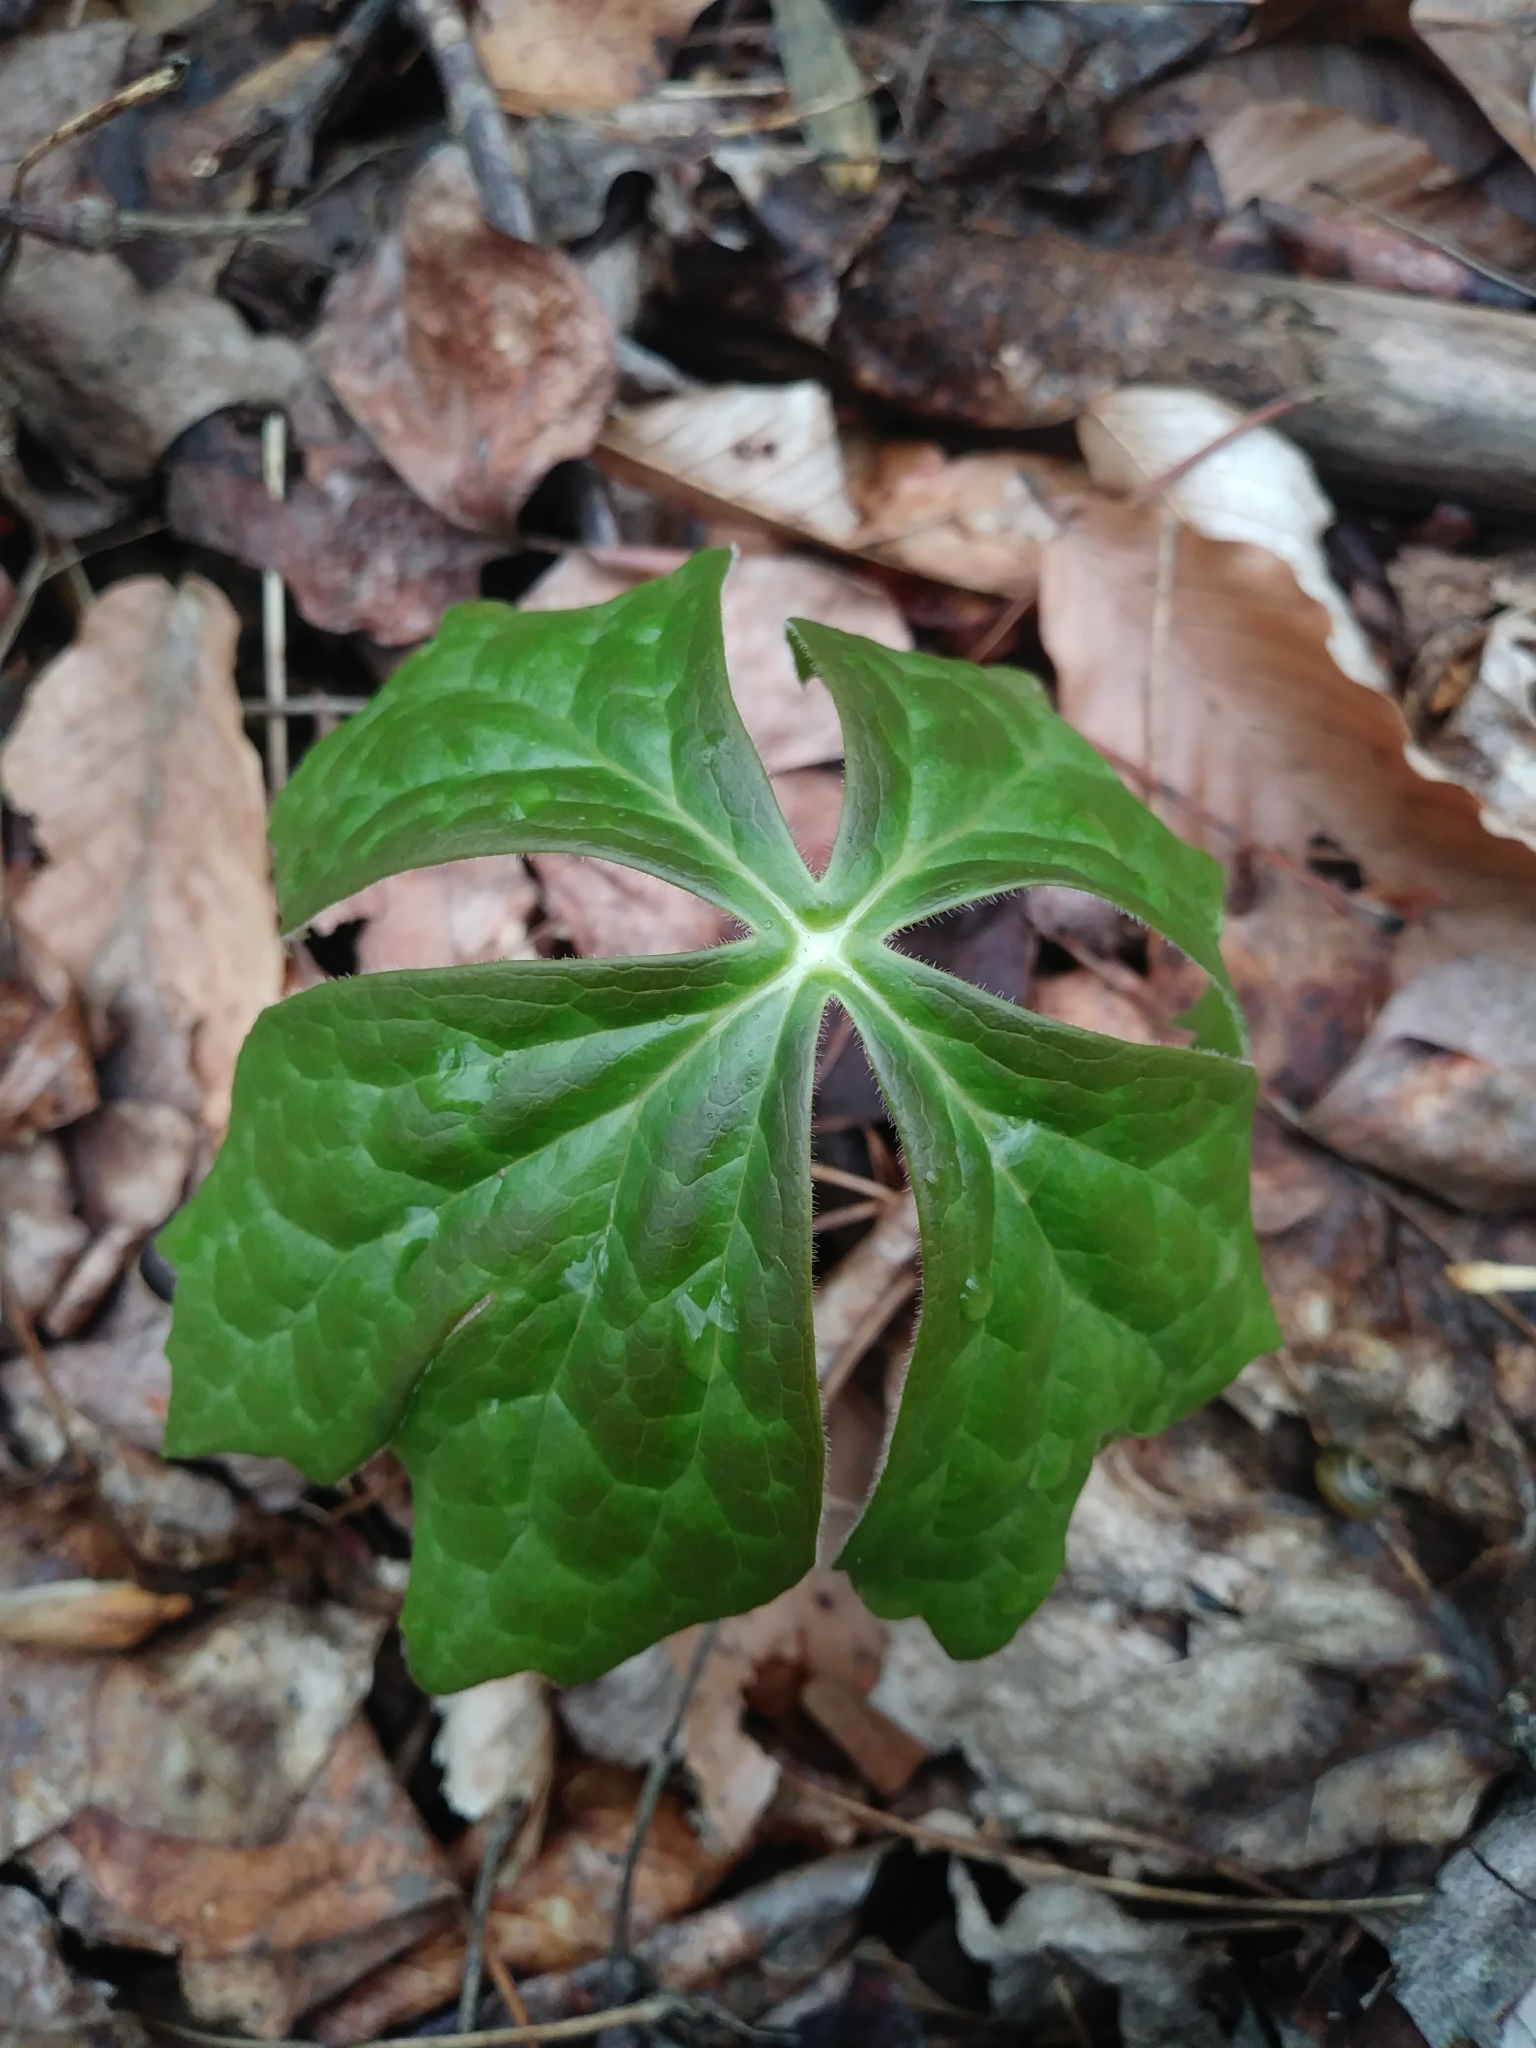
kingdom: Plantae
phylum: Tracheophyta
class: Magnoliopsida
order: Ranunculales
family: Berberidaceae
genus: Podophyllum
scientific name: Podophyllum peltatum
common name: Wild mandrake
